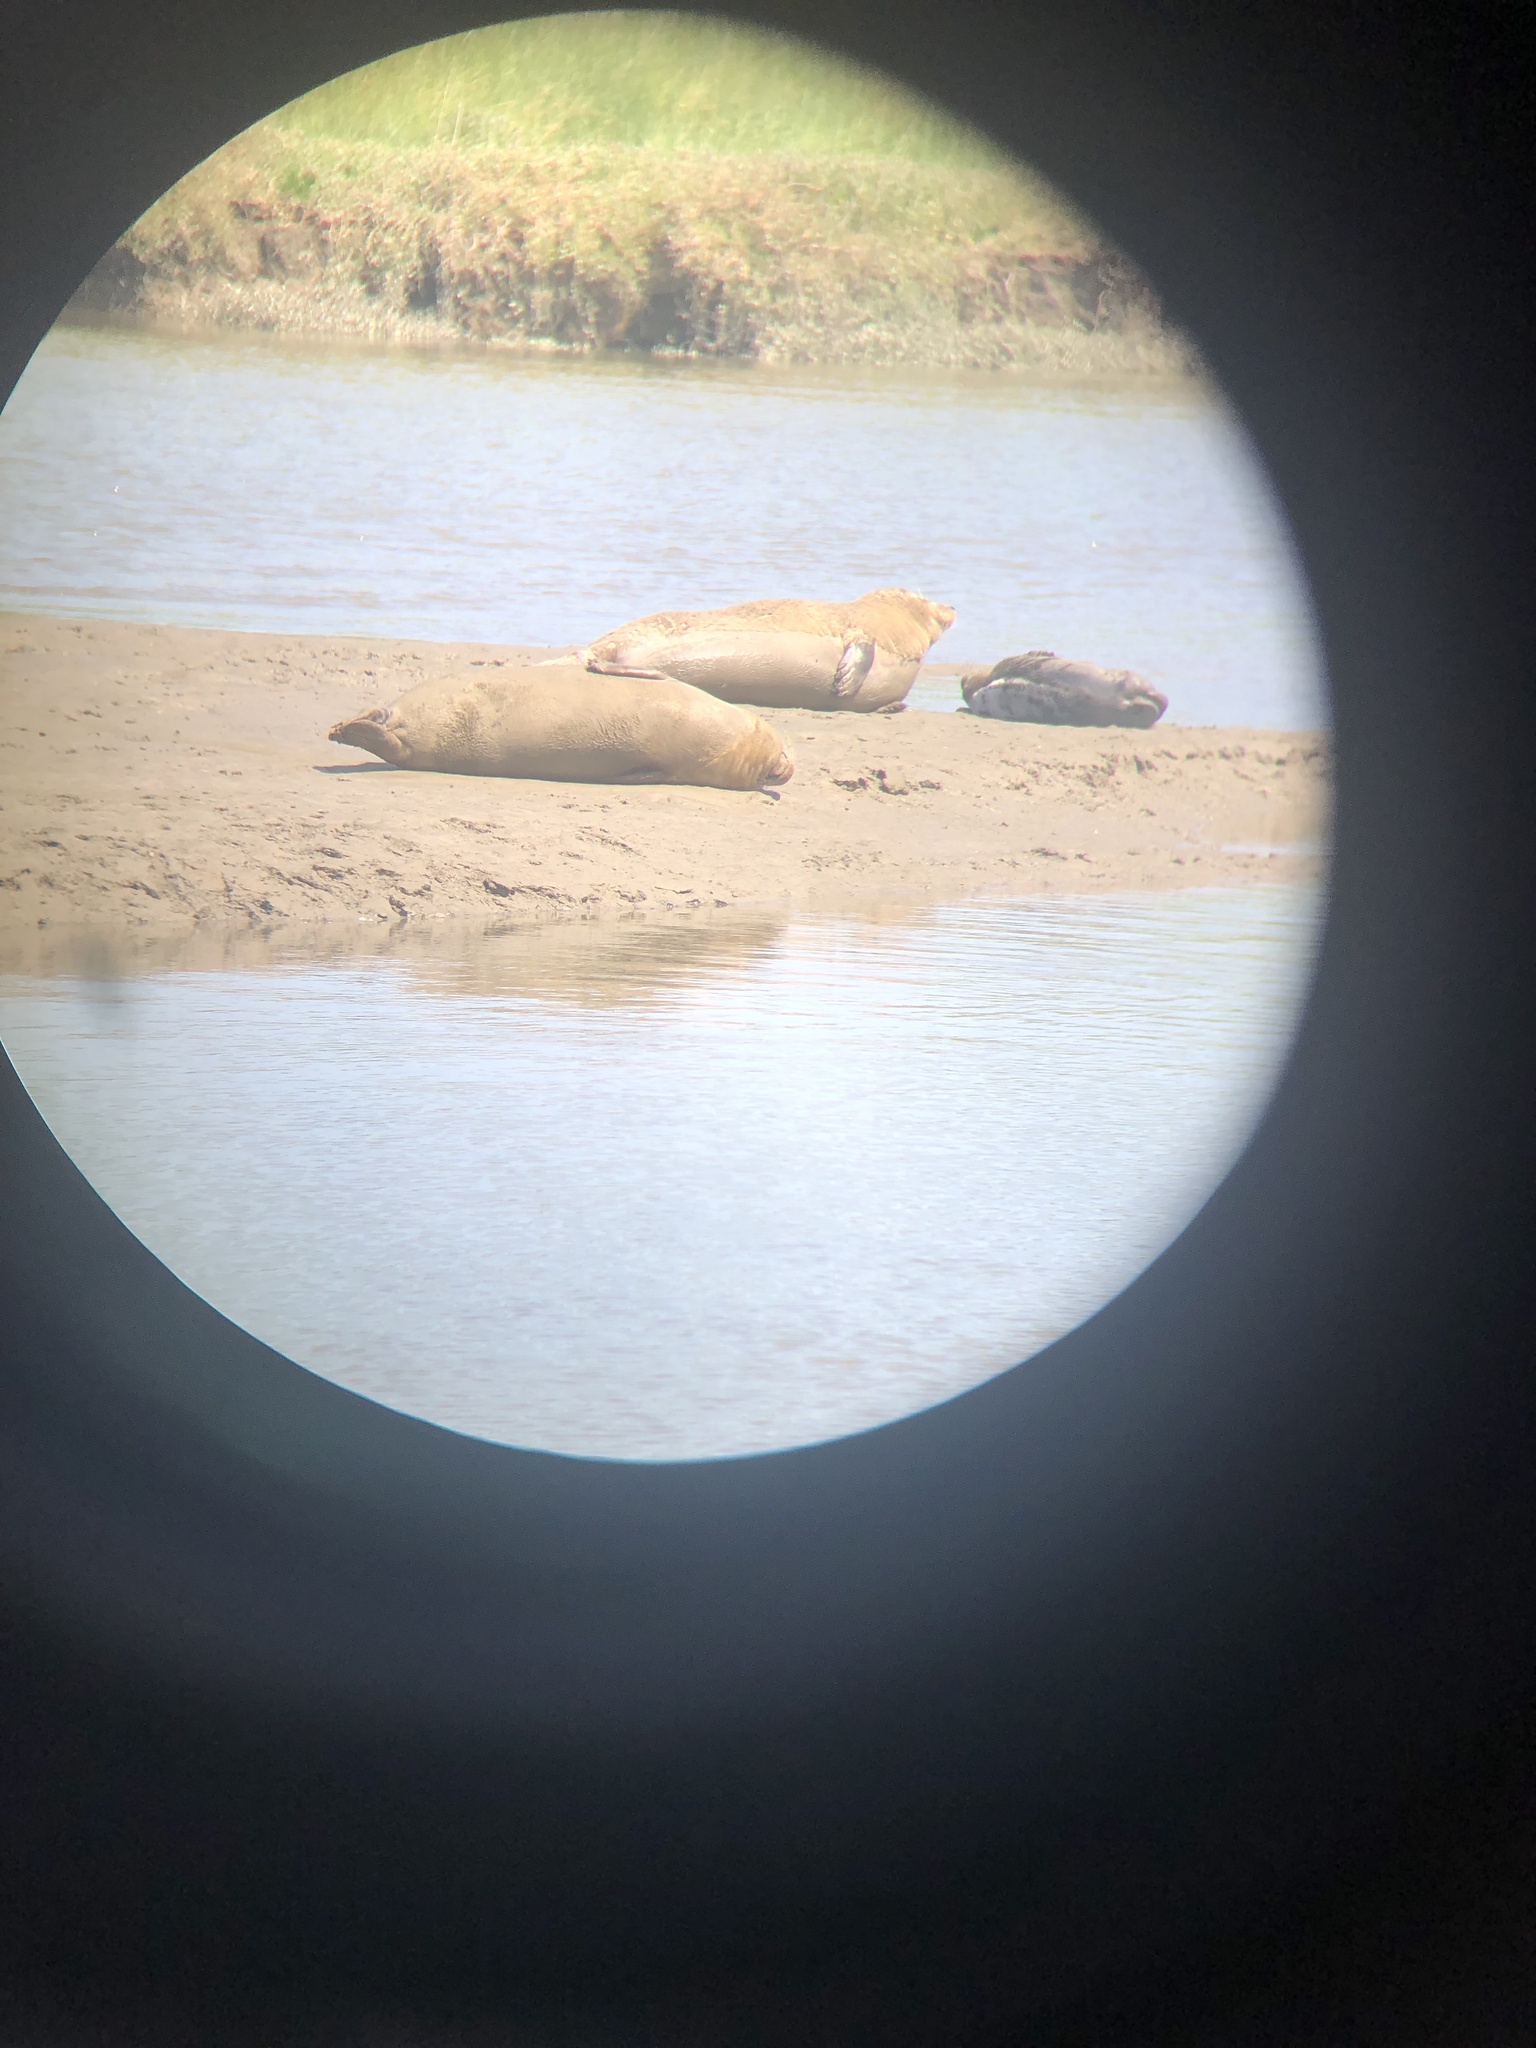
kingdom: Animalia
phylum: Chordata
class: Mammalia
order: Carnivora
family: Phocidae
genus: Phoca
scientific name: Phoca vitulina
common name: Harbor seal
